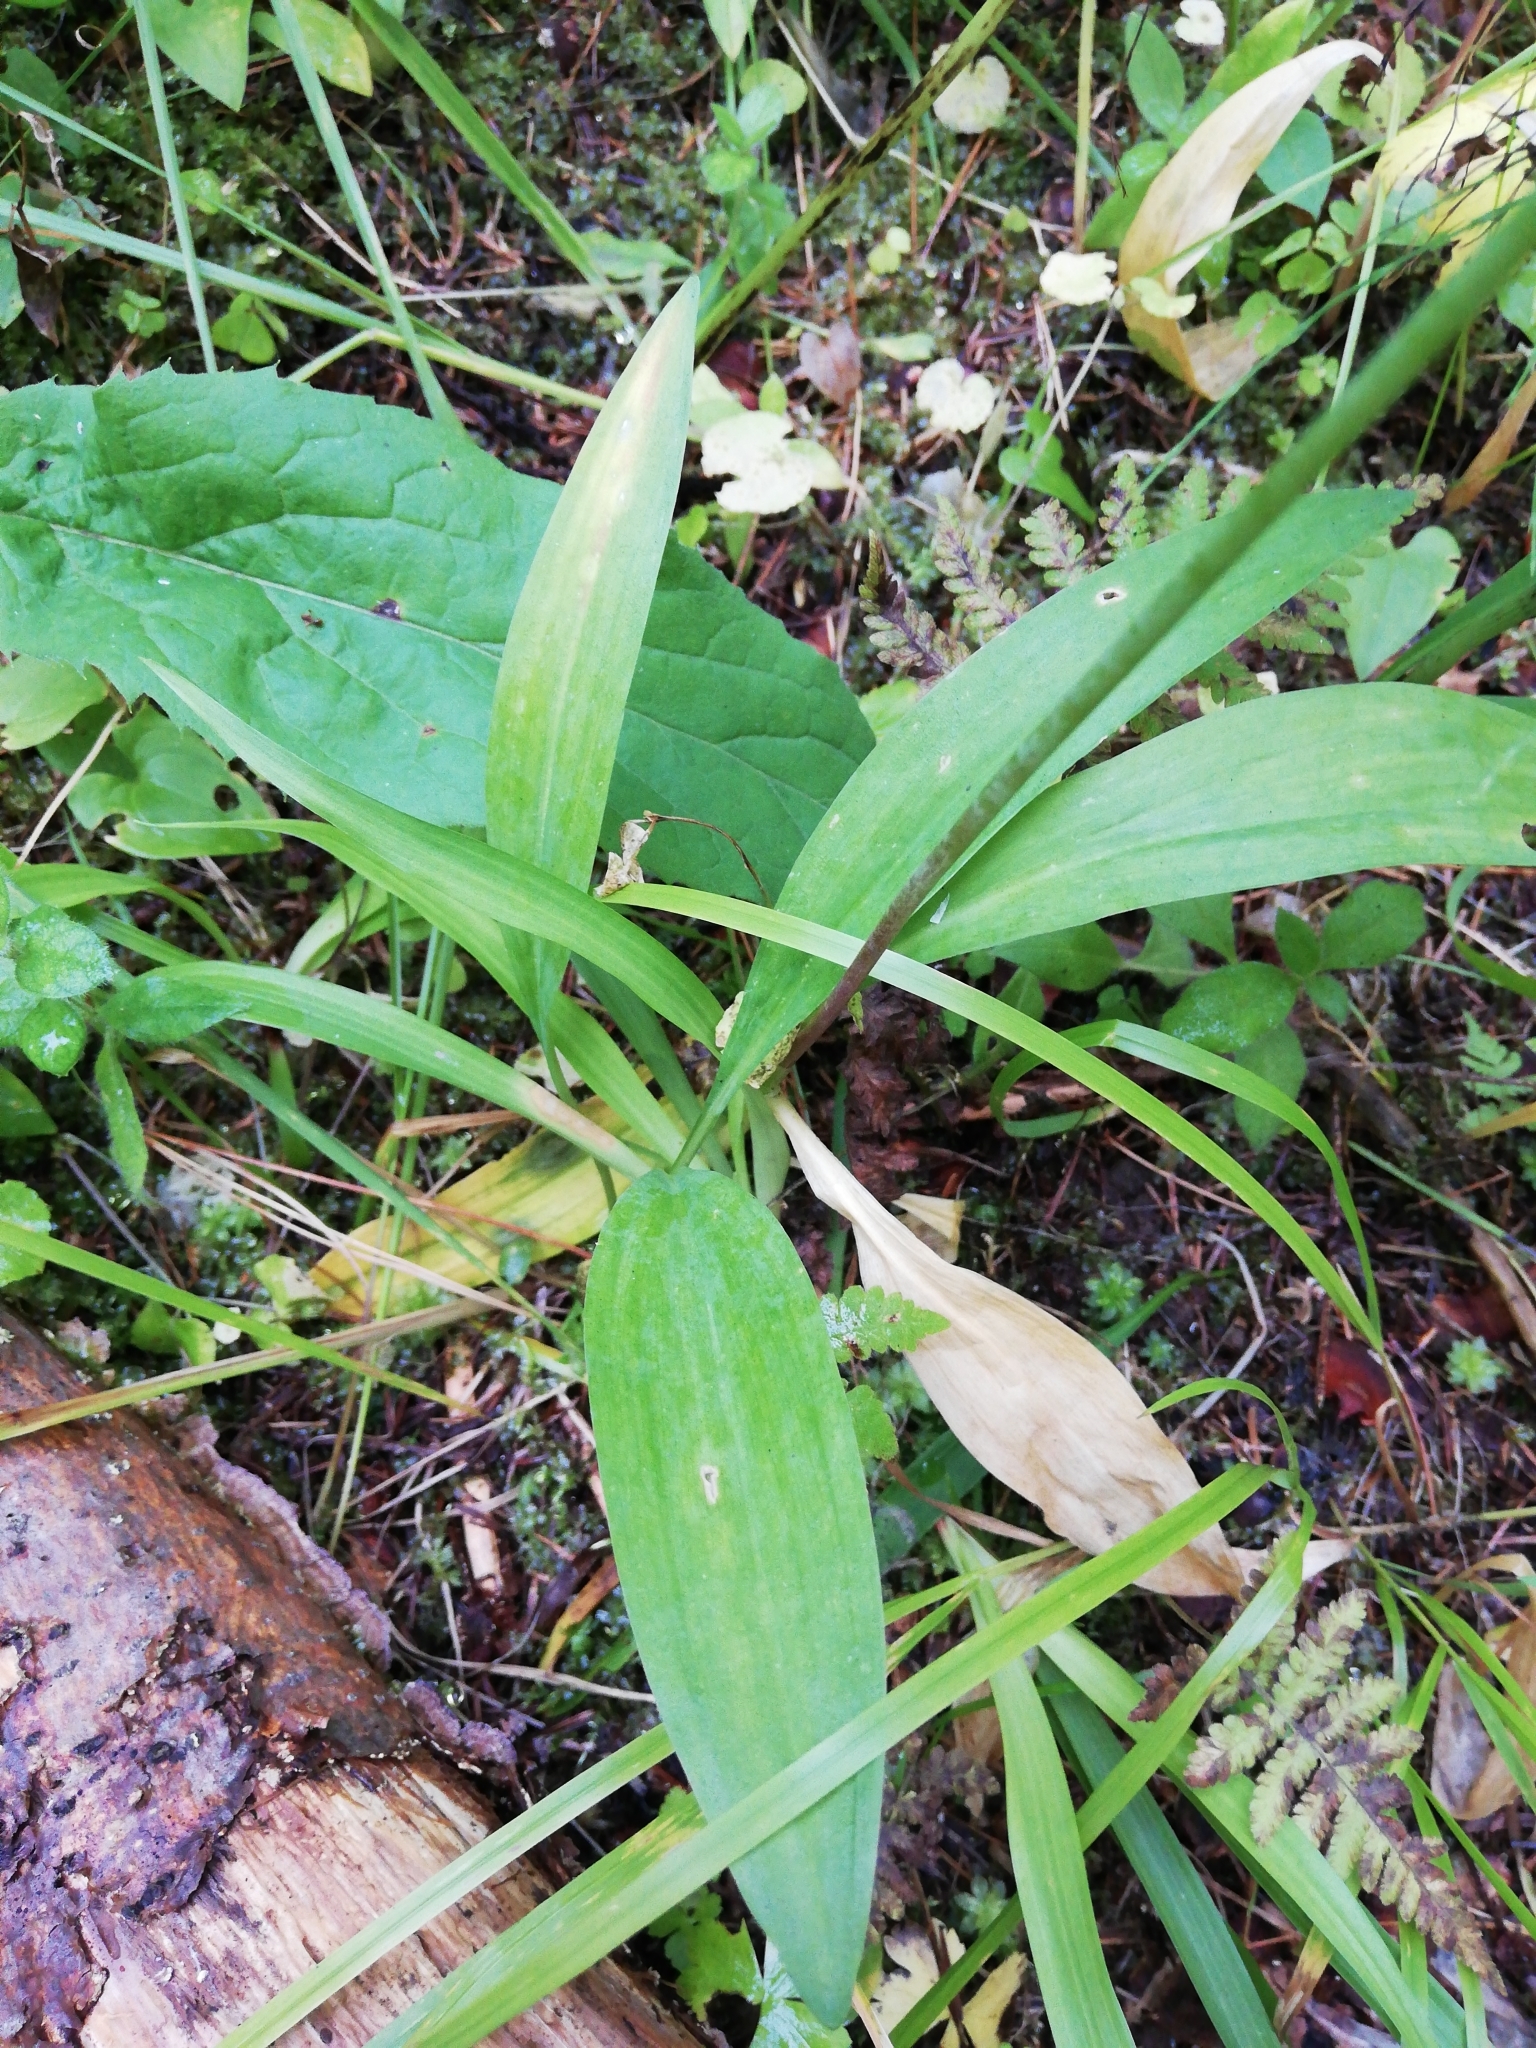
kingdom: Plantae
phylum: Tracheophyta
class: Liliopsida
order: Asparagales
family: Amaryllidaceae
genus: Allium
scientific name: Allium microdictyon
